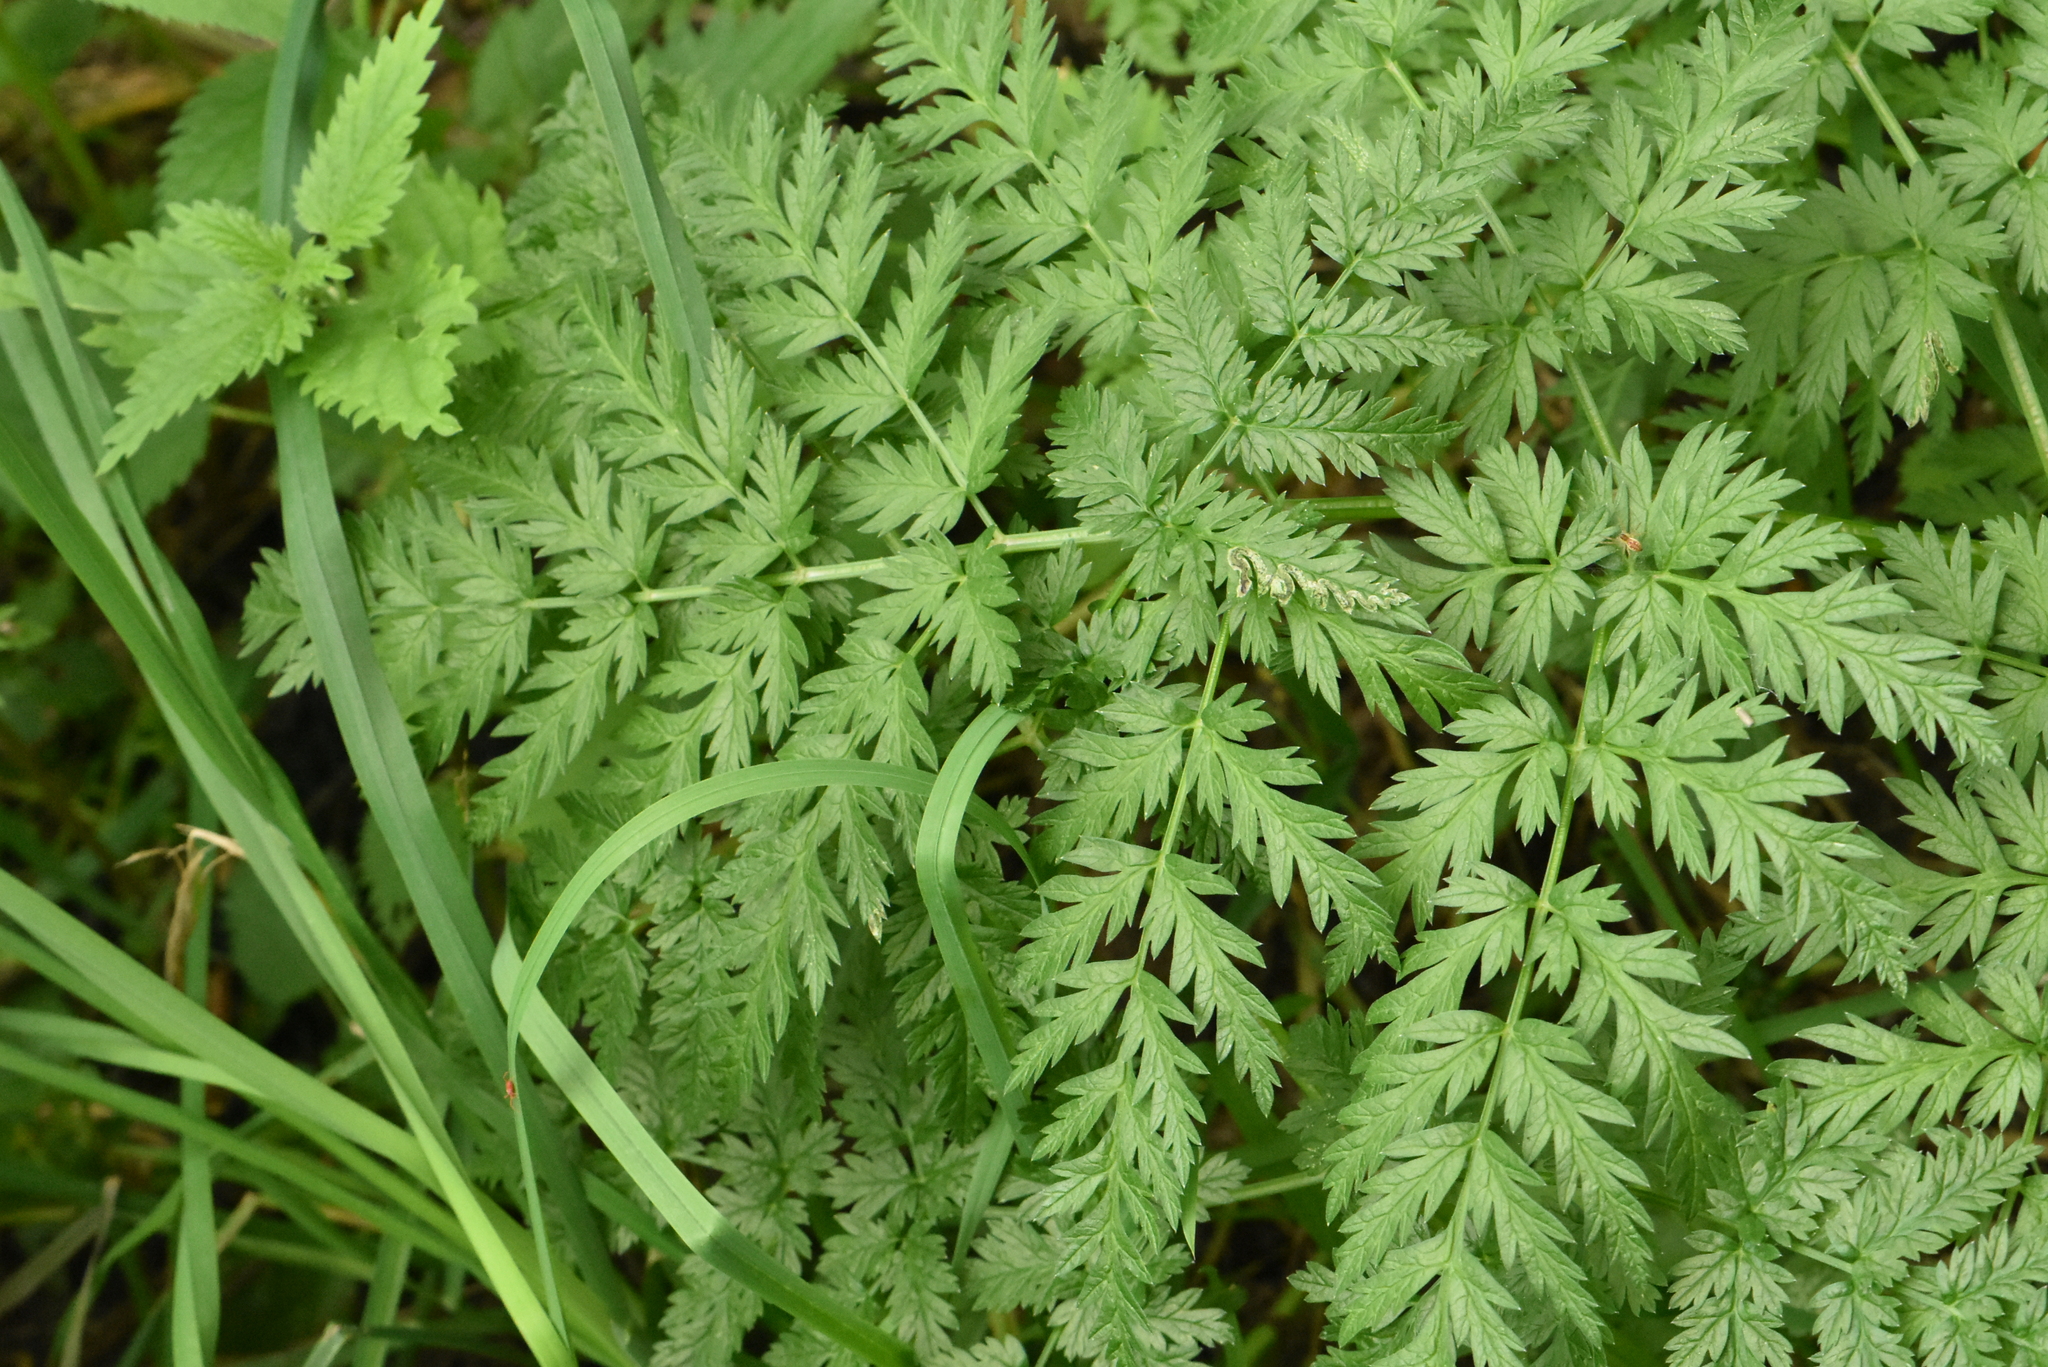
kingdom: Plantae
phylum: Tracheophyta
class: Magnoliopsida
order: Apiales
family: Apiaceae
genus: Anthriscus
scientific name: Anthriscus sylvestris
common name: Cow parsley
